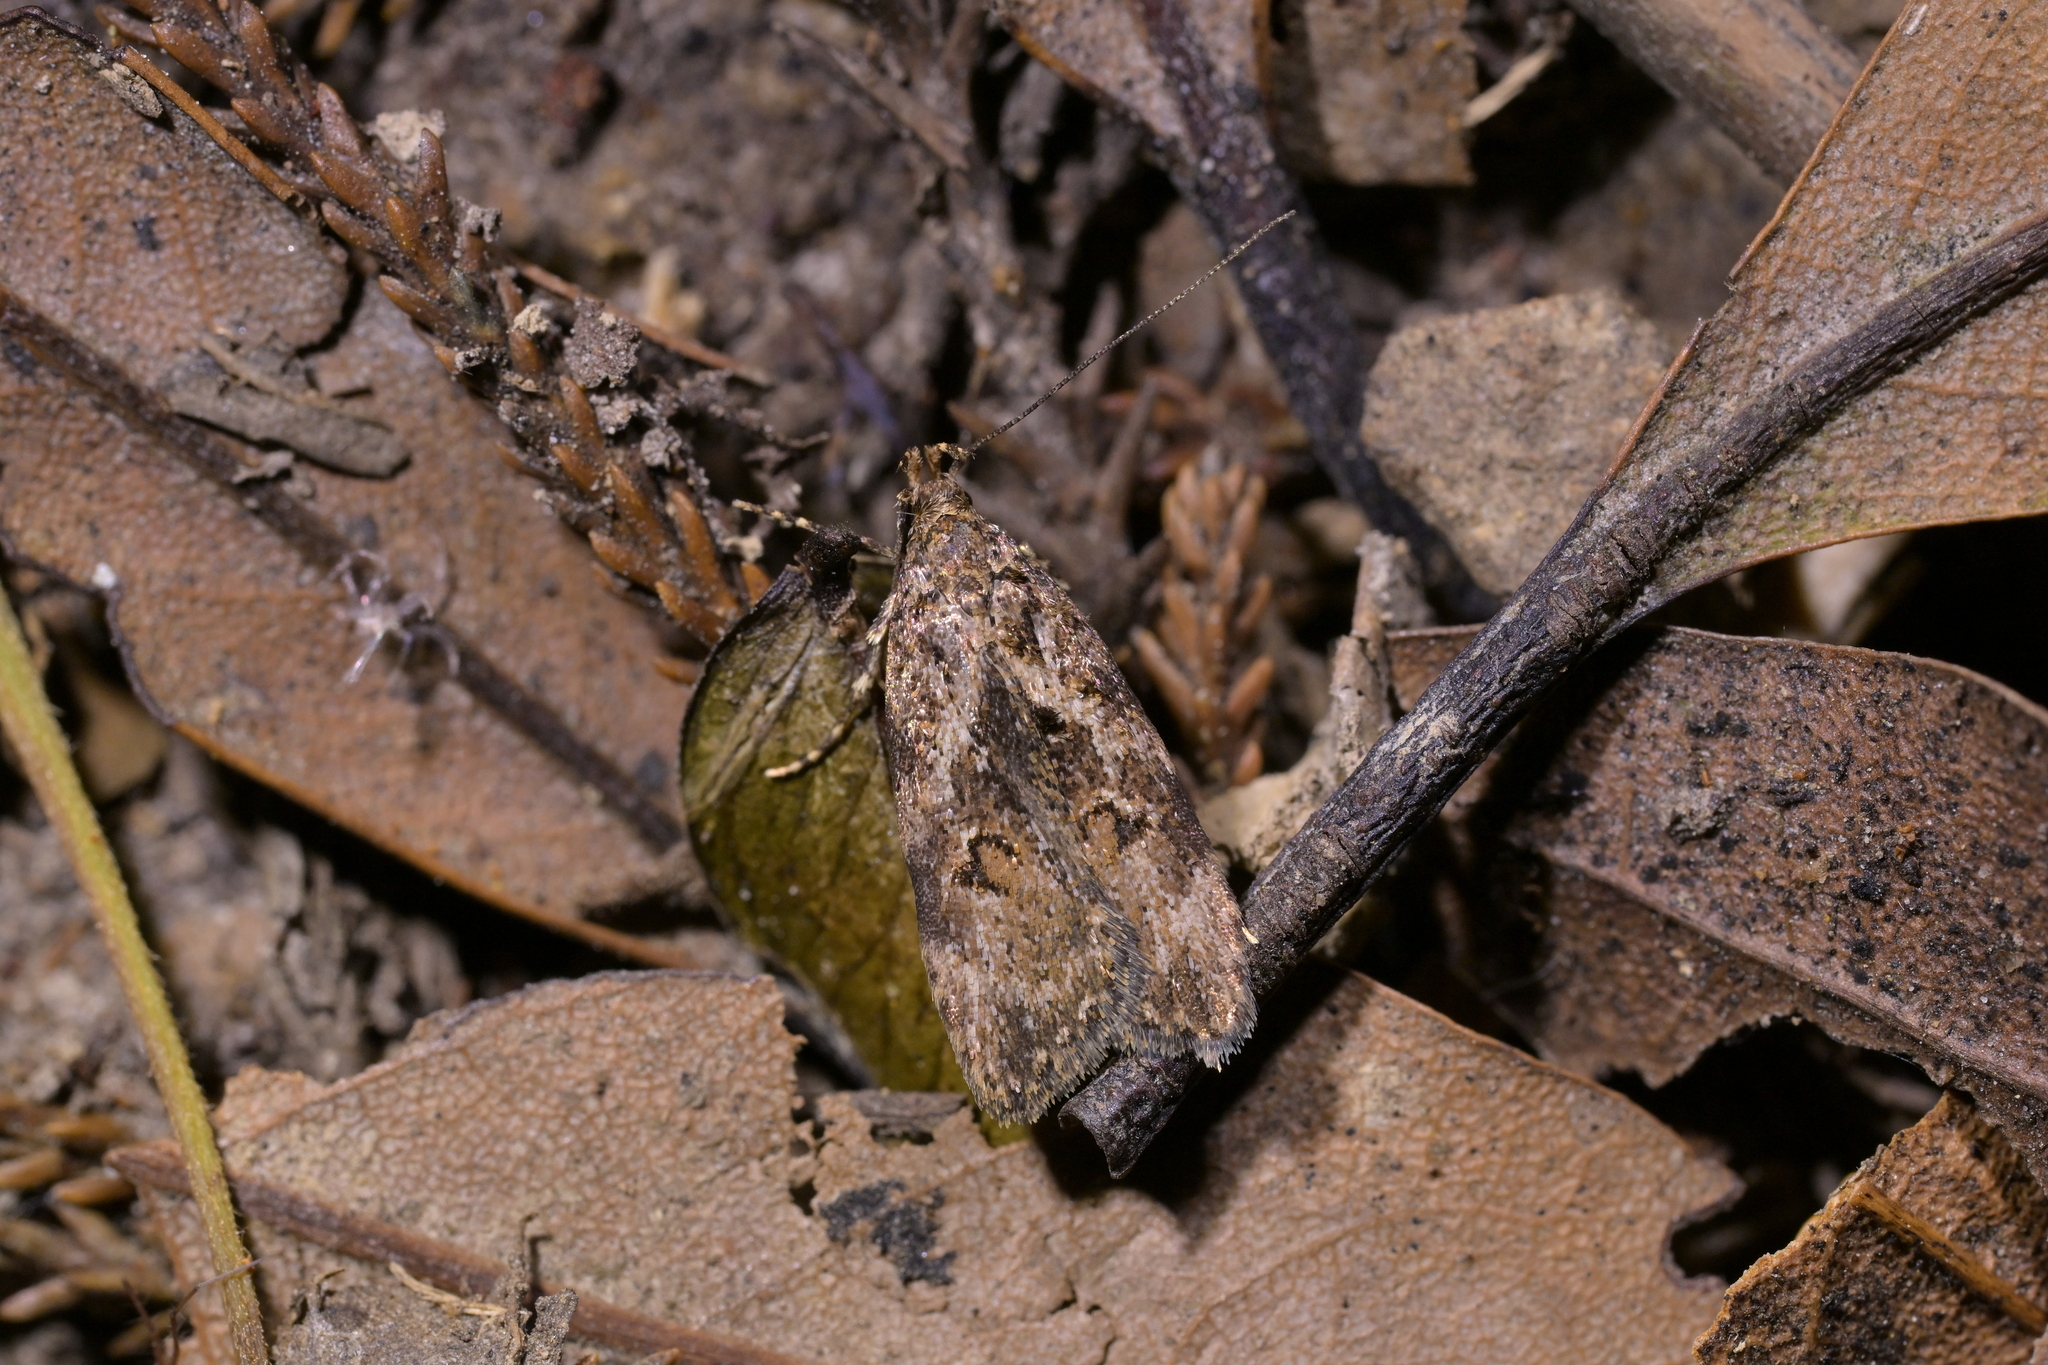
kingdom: Animalia
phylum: Arthropoda
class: Insecta
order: Lepidoptera
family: Oecophoridae
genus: Izatha
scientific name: Izatha austera
